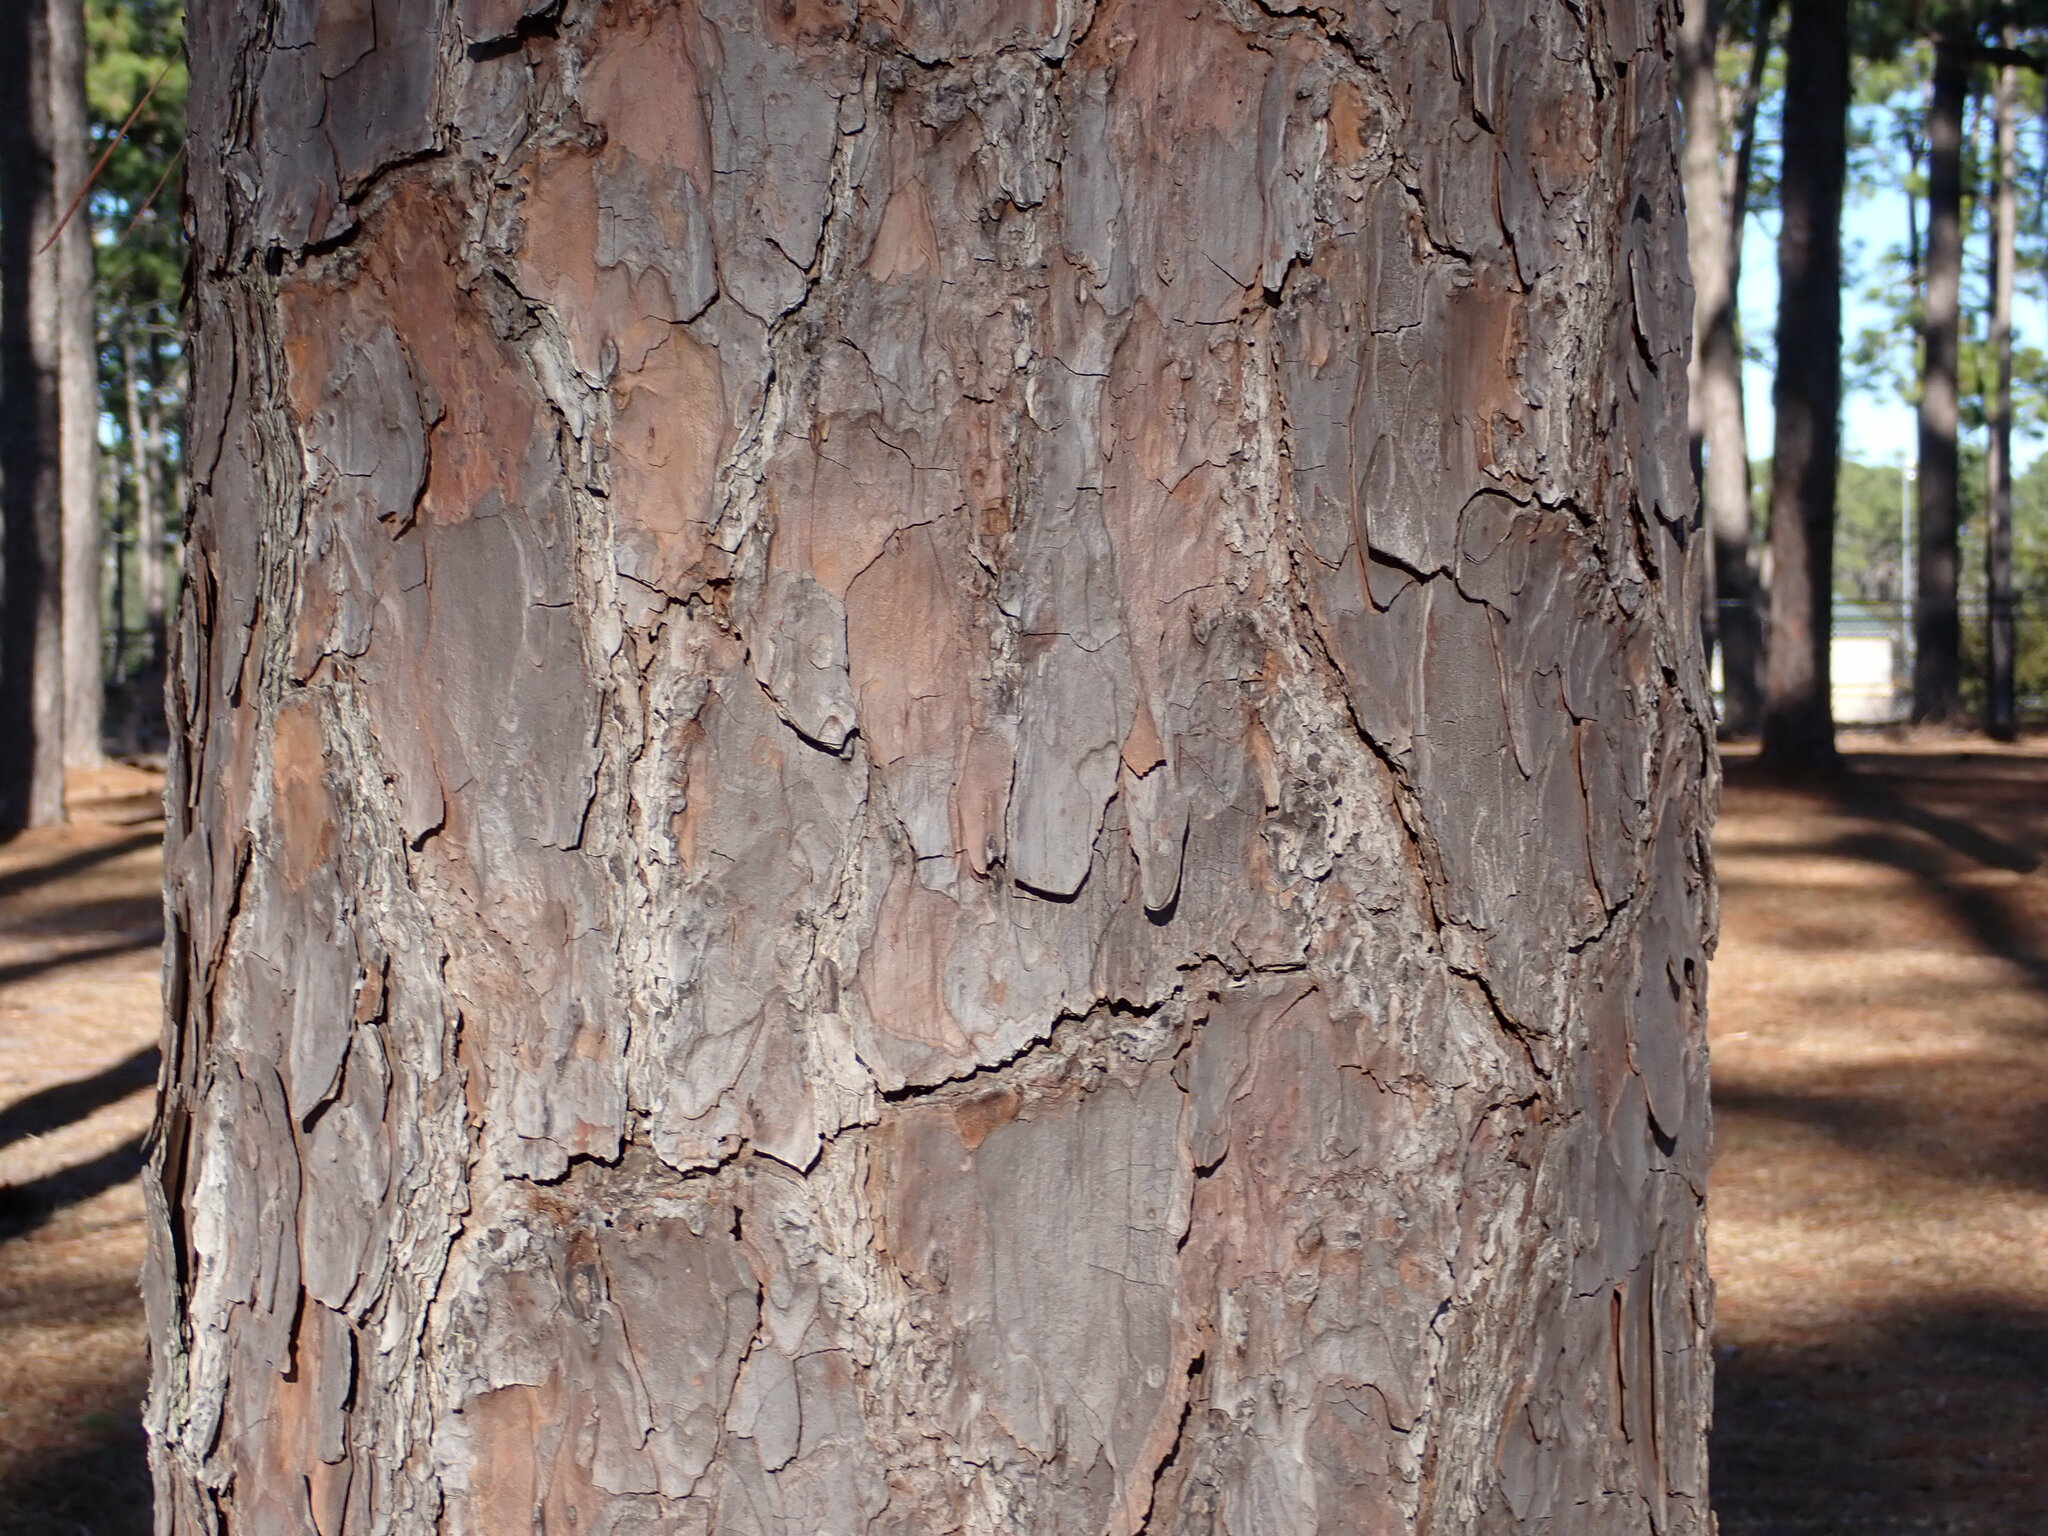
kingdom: Plantae
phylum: Tracheophyta
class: Pinopsida
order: Pinales
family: Pinaceae
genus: Pinus
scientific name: Pinus palustris
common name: Longleaf pine
